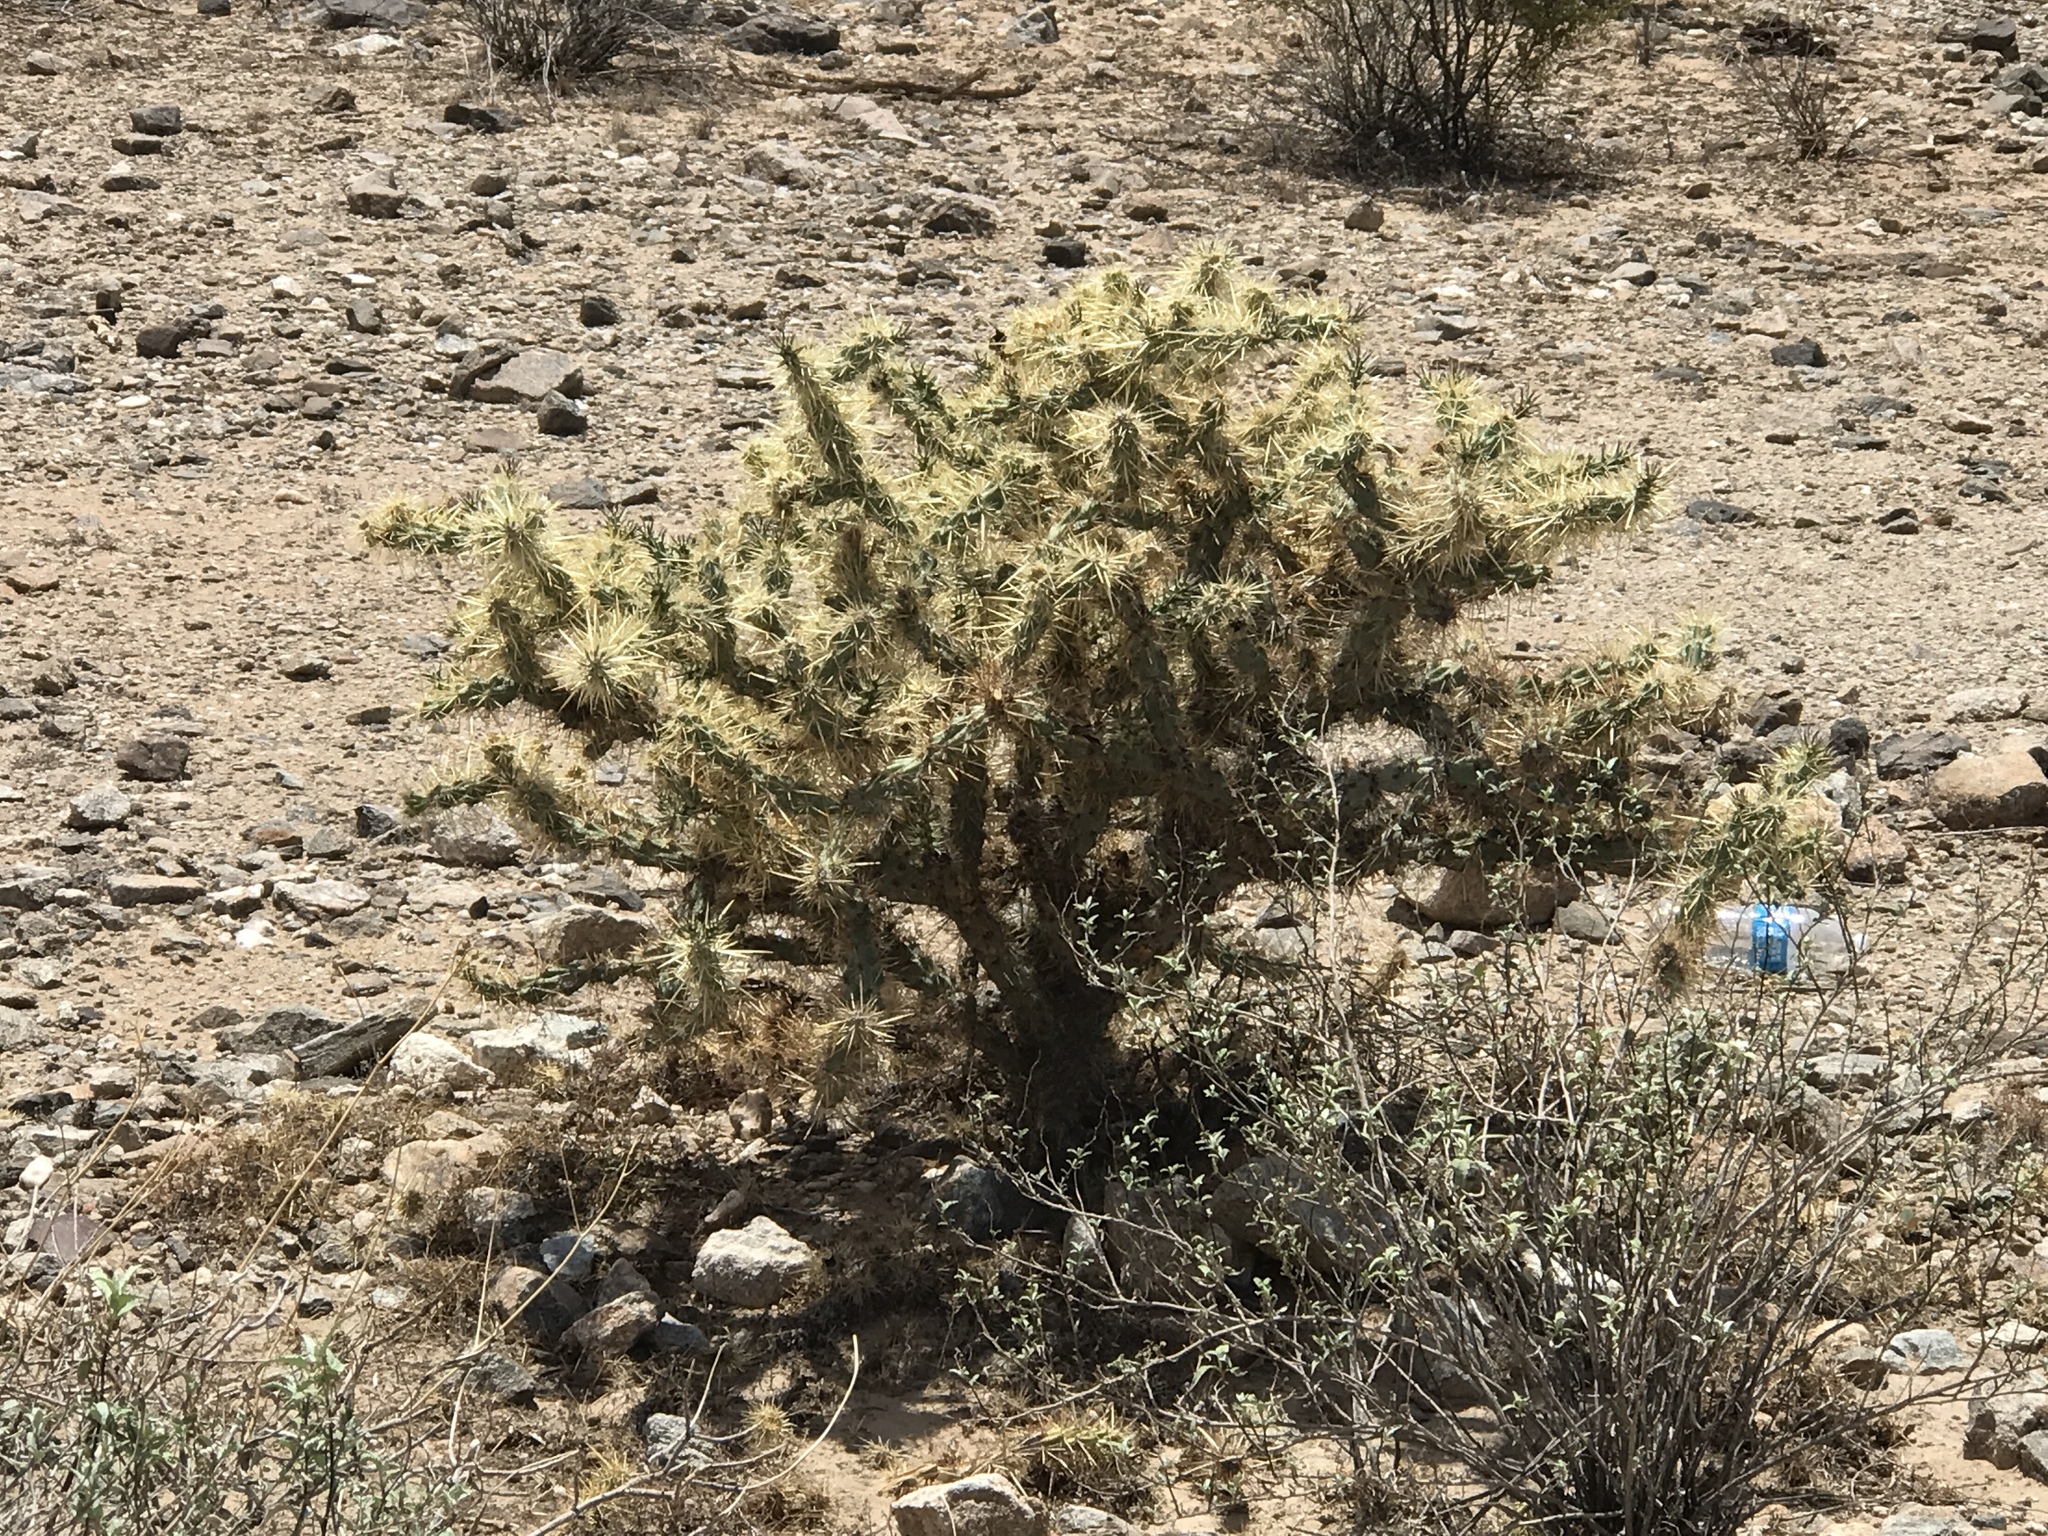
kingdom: Plantae
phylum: Tracheophyta
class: Magnoliopsida
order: Caryophyllales
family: Cactaceae
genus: Cylindropuntia
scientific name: Cylindropuntia acanthocarpa
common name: Buckhorn cholla
